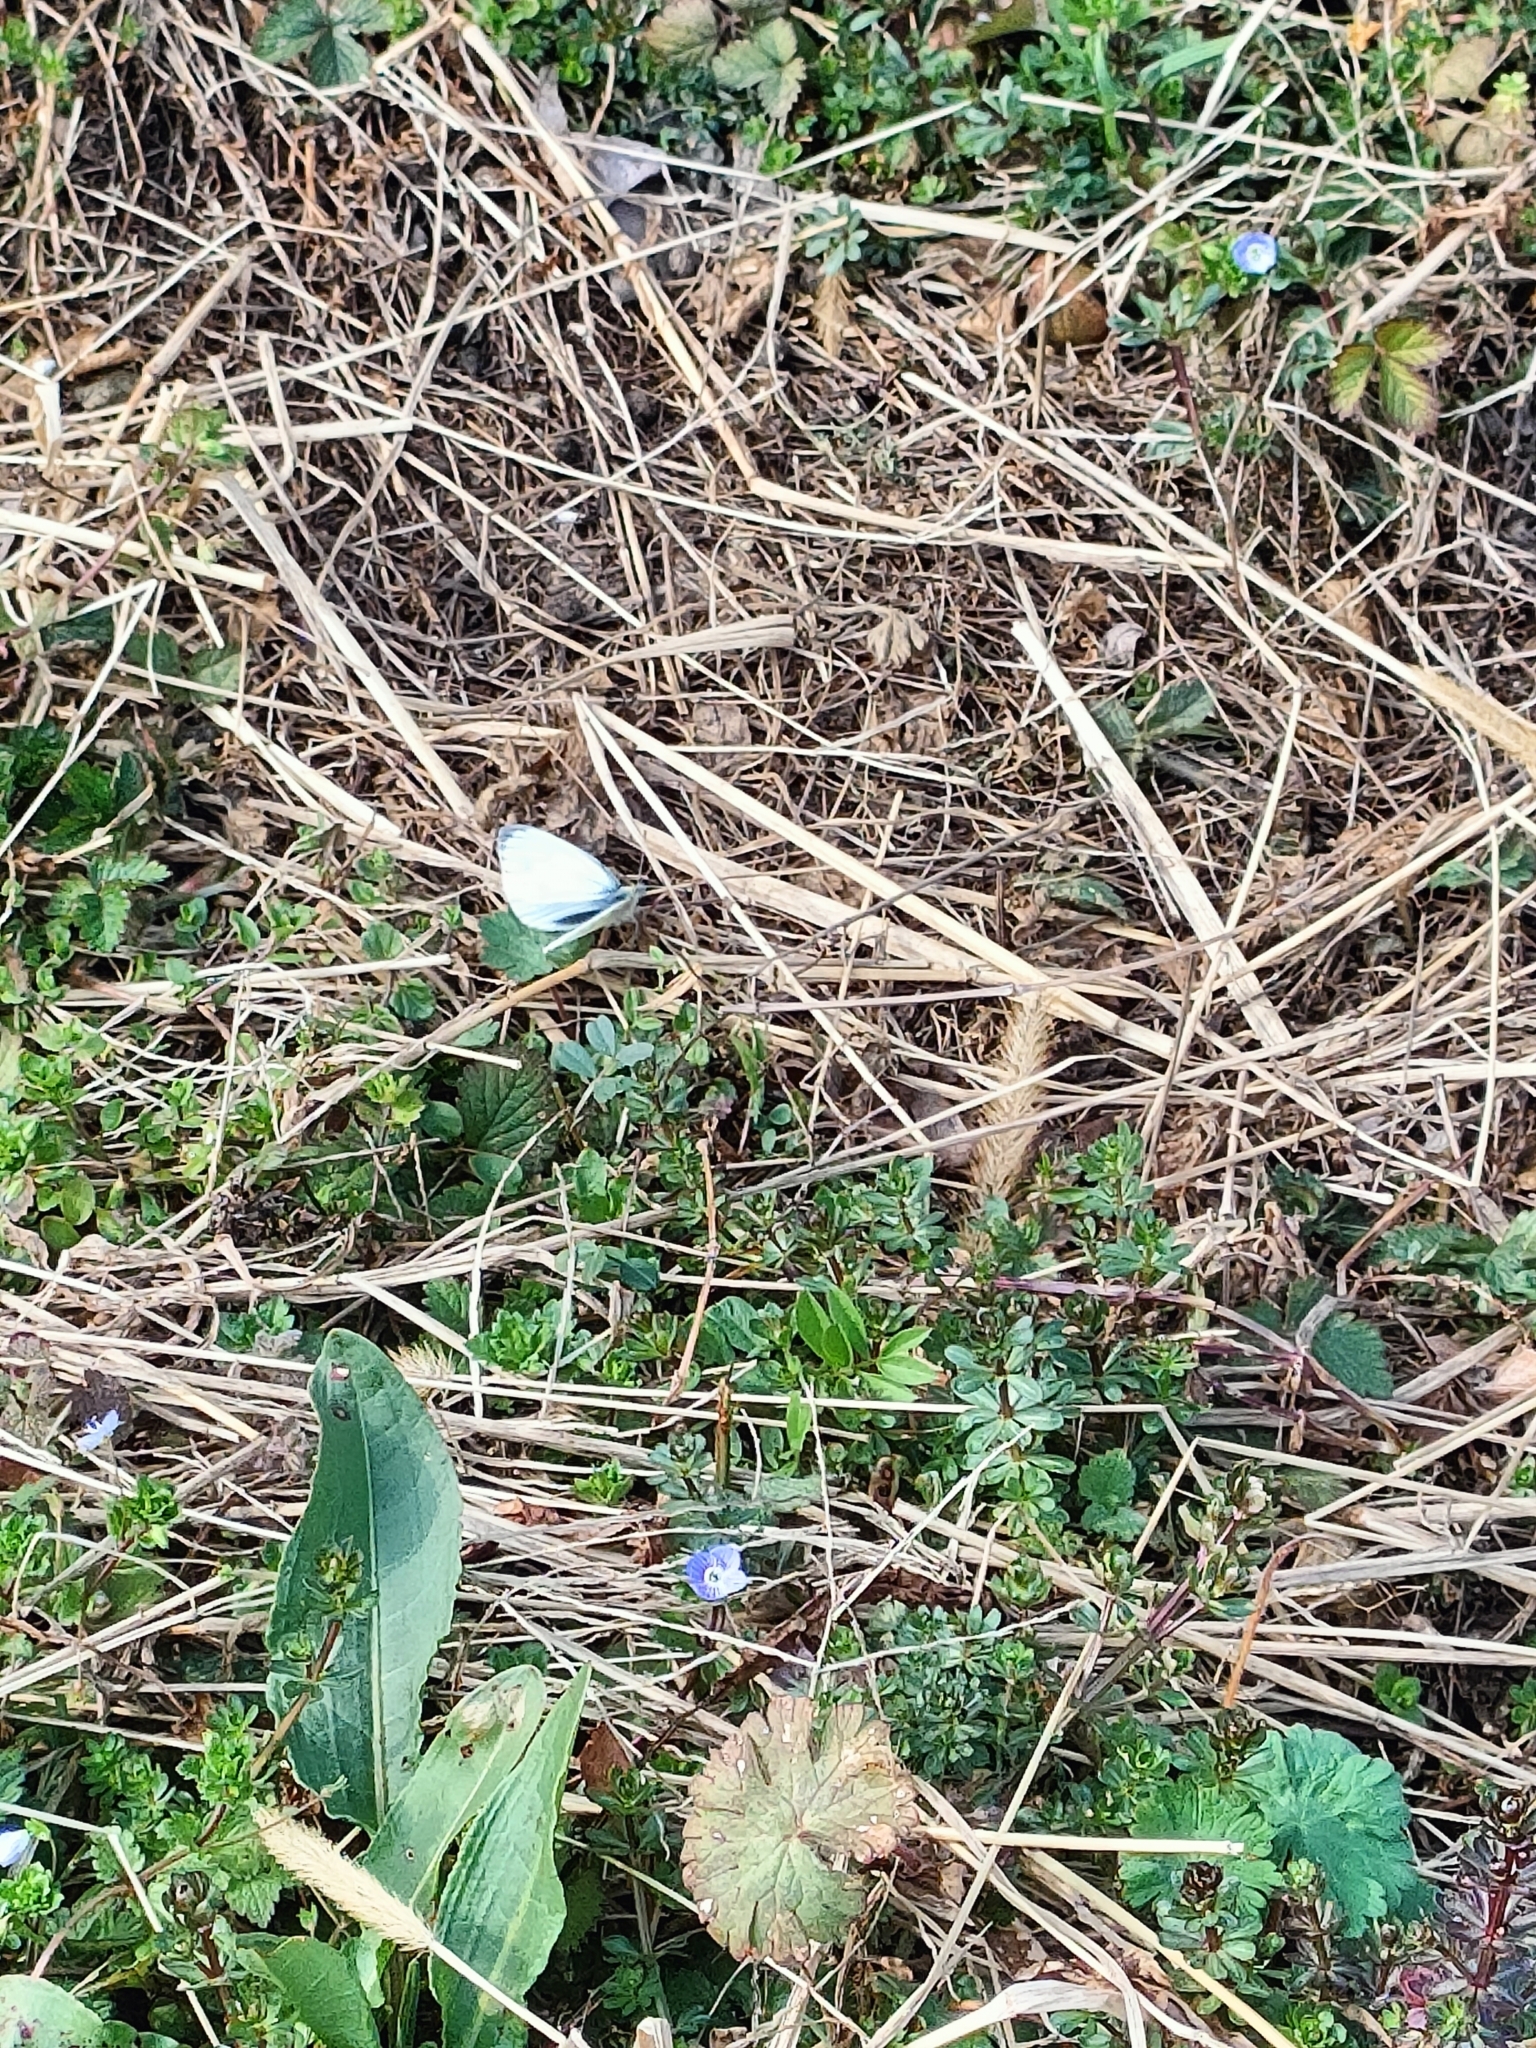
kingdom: Animalia
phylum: Arthropoda
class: Insecta
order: Lepidoptera
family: Pieridae
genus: Pieris
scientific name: Pieris napi
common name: Green-veined white
